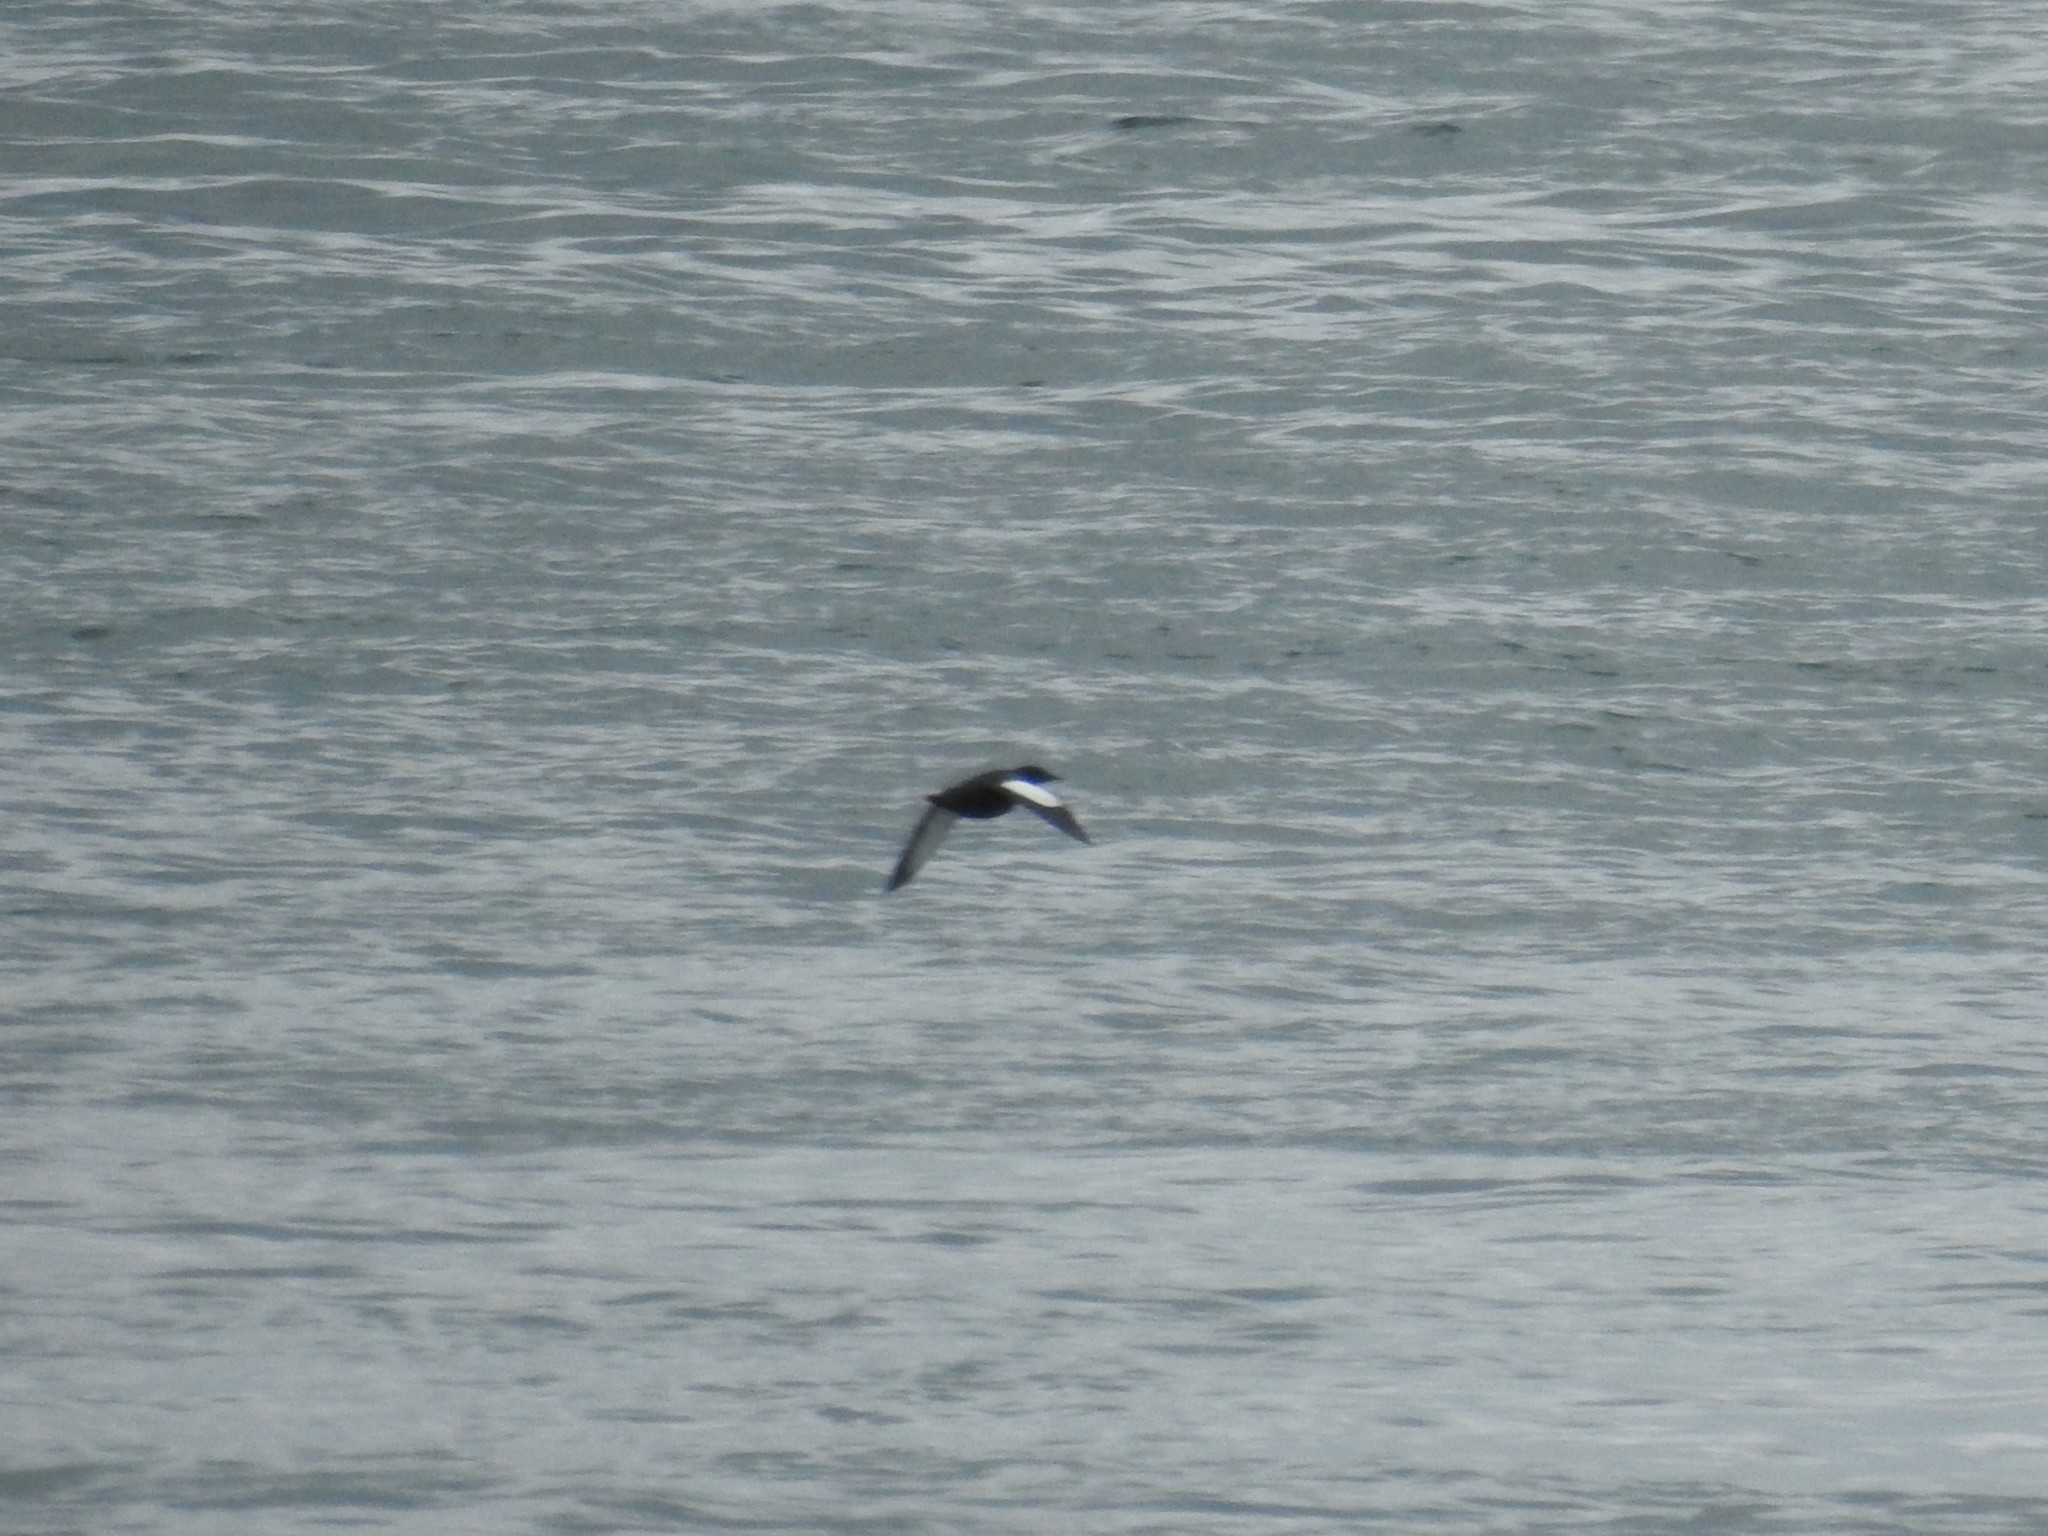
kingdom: Animalia
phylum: Chordata
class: Aves
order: Charadriiformes
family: Alcidae
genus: Cepphus
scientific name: Cepphus grylle
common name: Black guillemot
